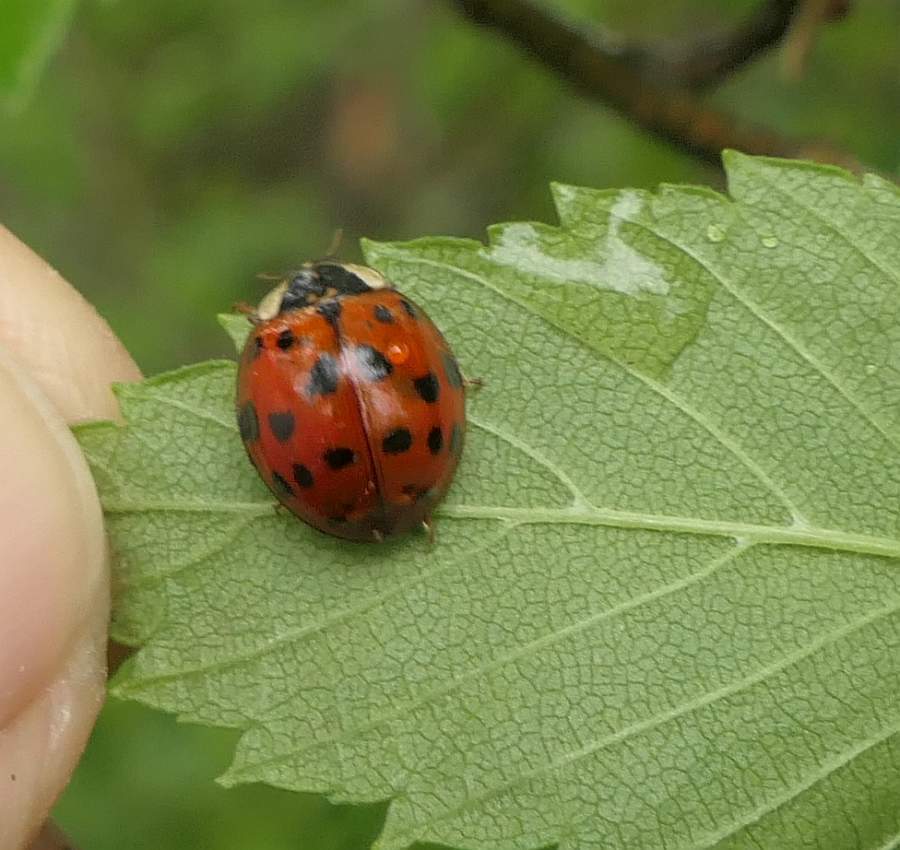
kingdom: Animalia
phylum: Arthropoda
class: Insecta
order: Coleoptera
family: Coccinellidae
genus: Harmonia
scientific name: Harmonia axyridis
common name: Harlequin ladybird
